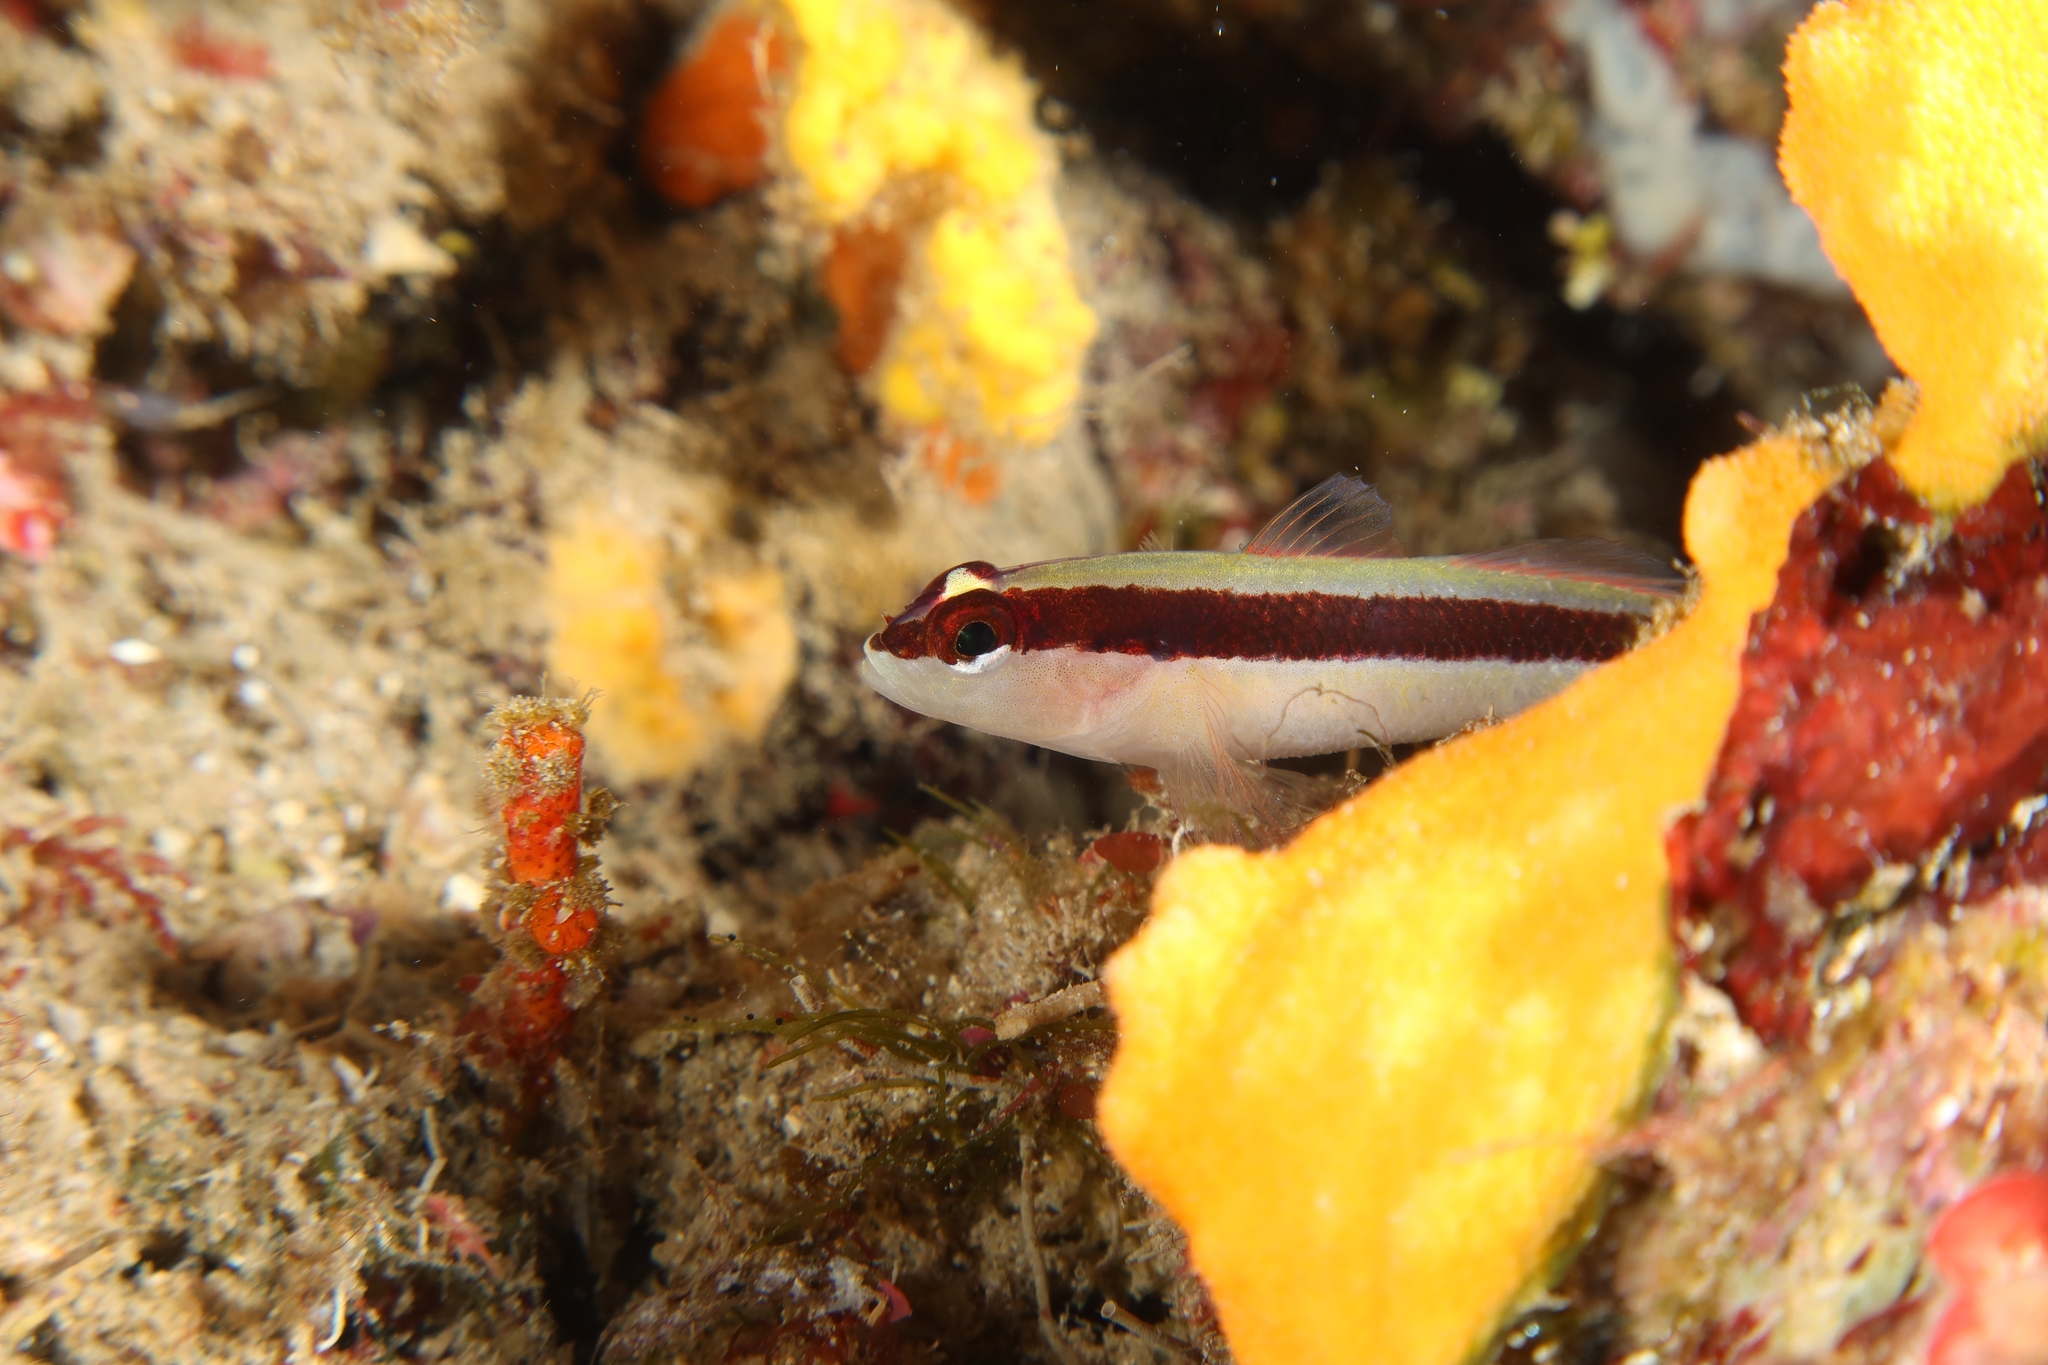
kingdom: Animalia
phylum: Chordata
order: Perciformes
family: Gobiidae
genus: Gobius
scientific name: Gobius vittatus
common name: Striped goby
